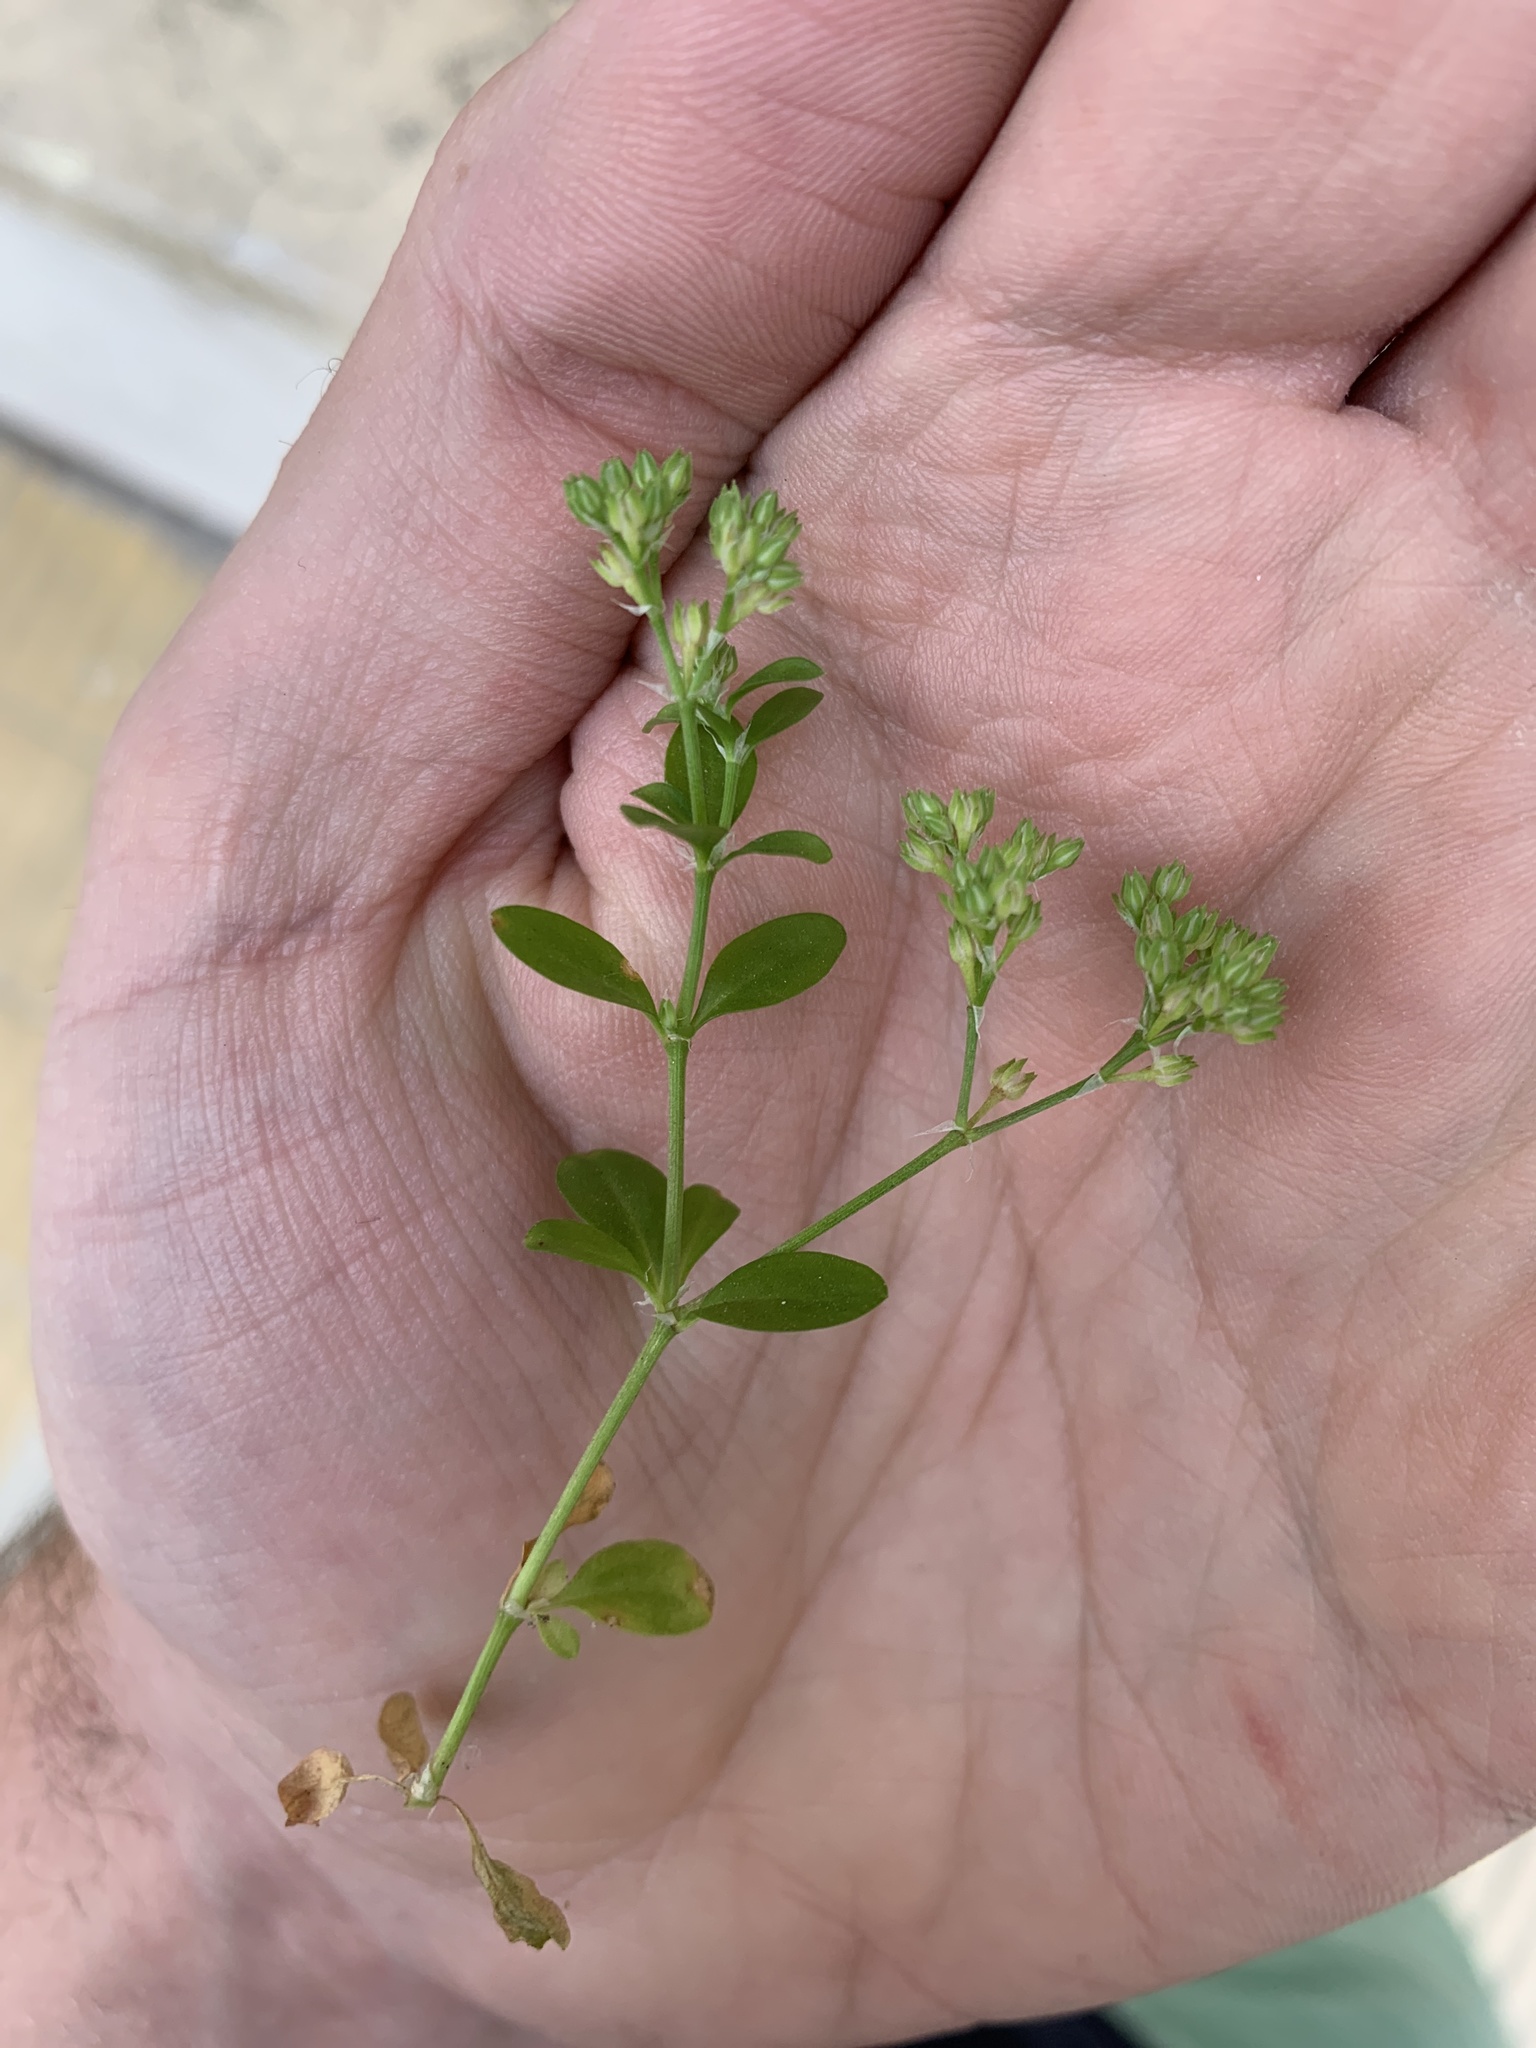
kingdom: Plantae
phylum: Tracheophyta
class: Magnoliopsida
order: Caryophyllales
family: Caryophyllaceae
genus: Polycarpon
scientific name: Polycarpon tetraphyllum
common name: Four-leaved all-seed
